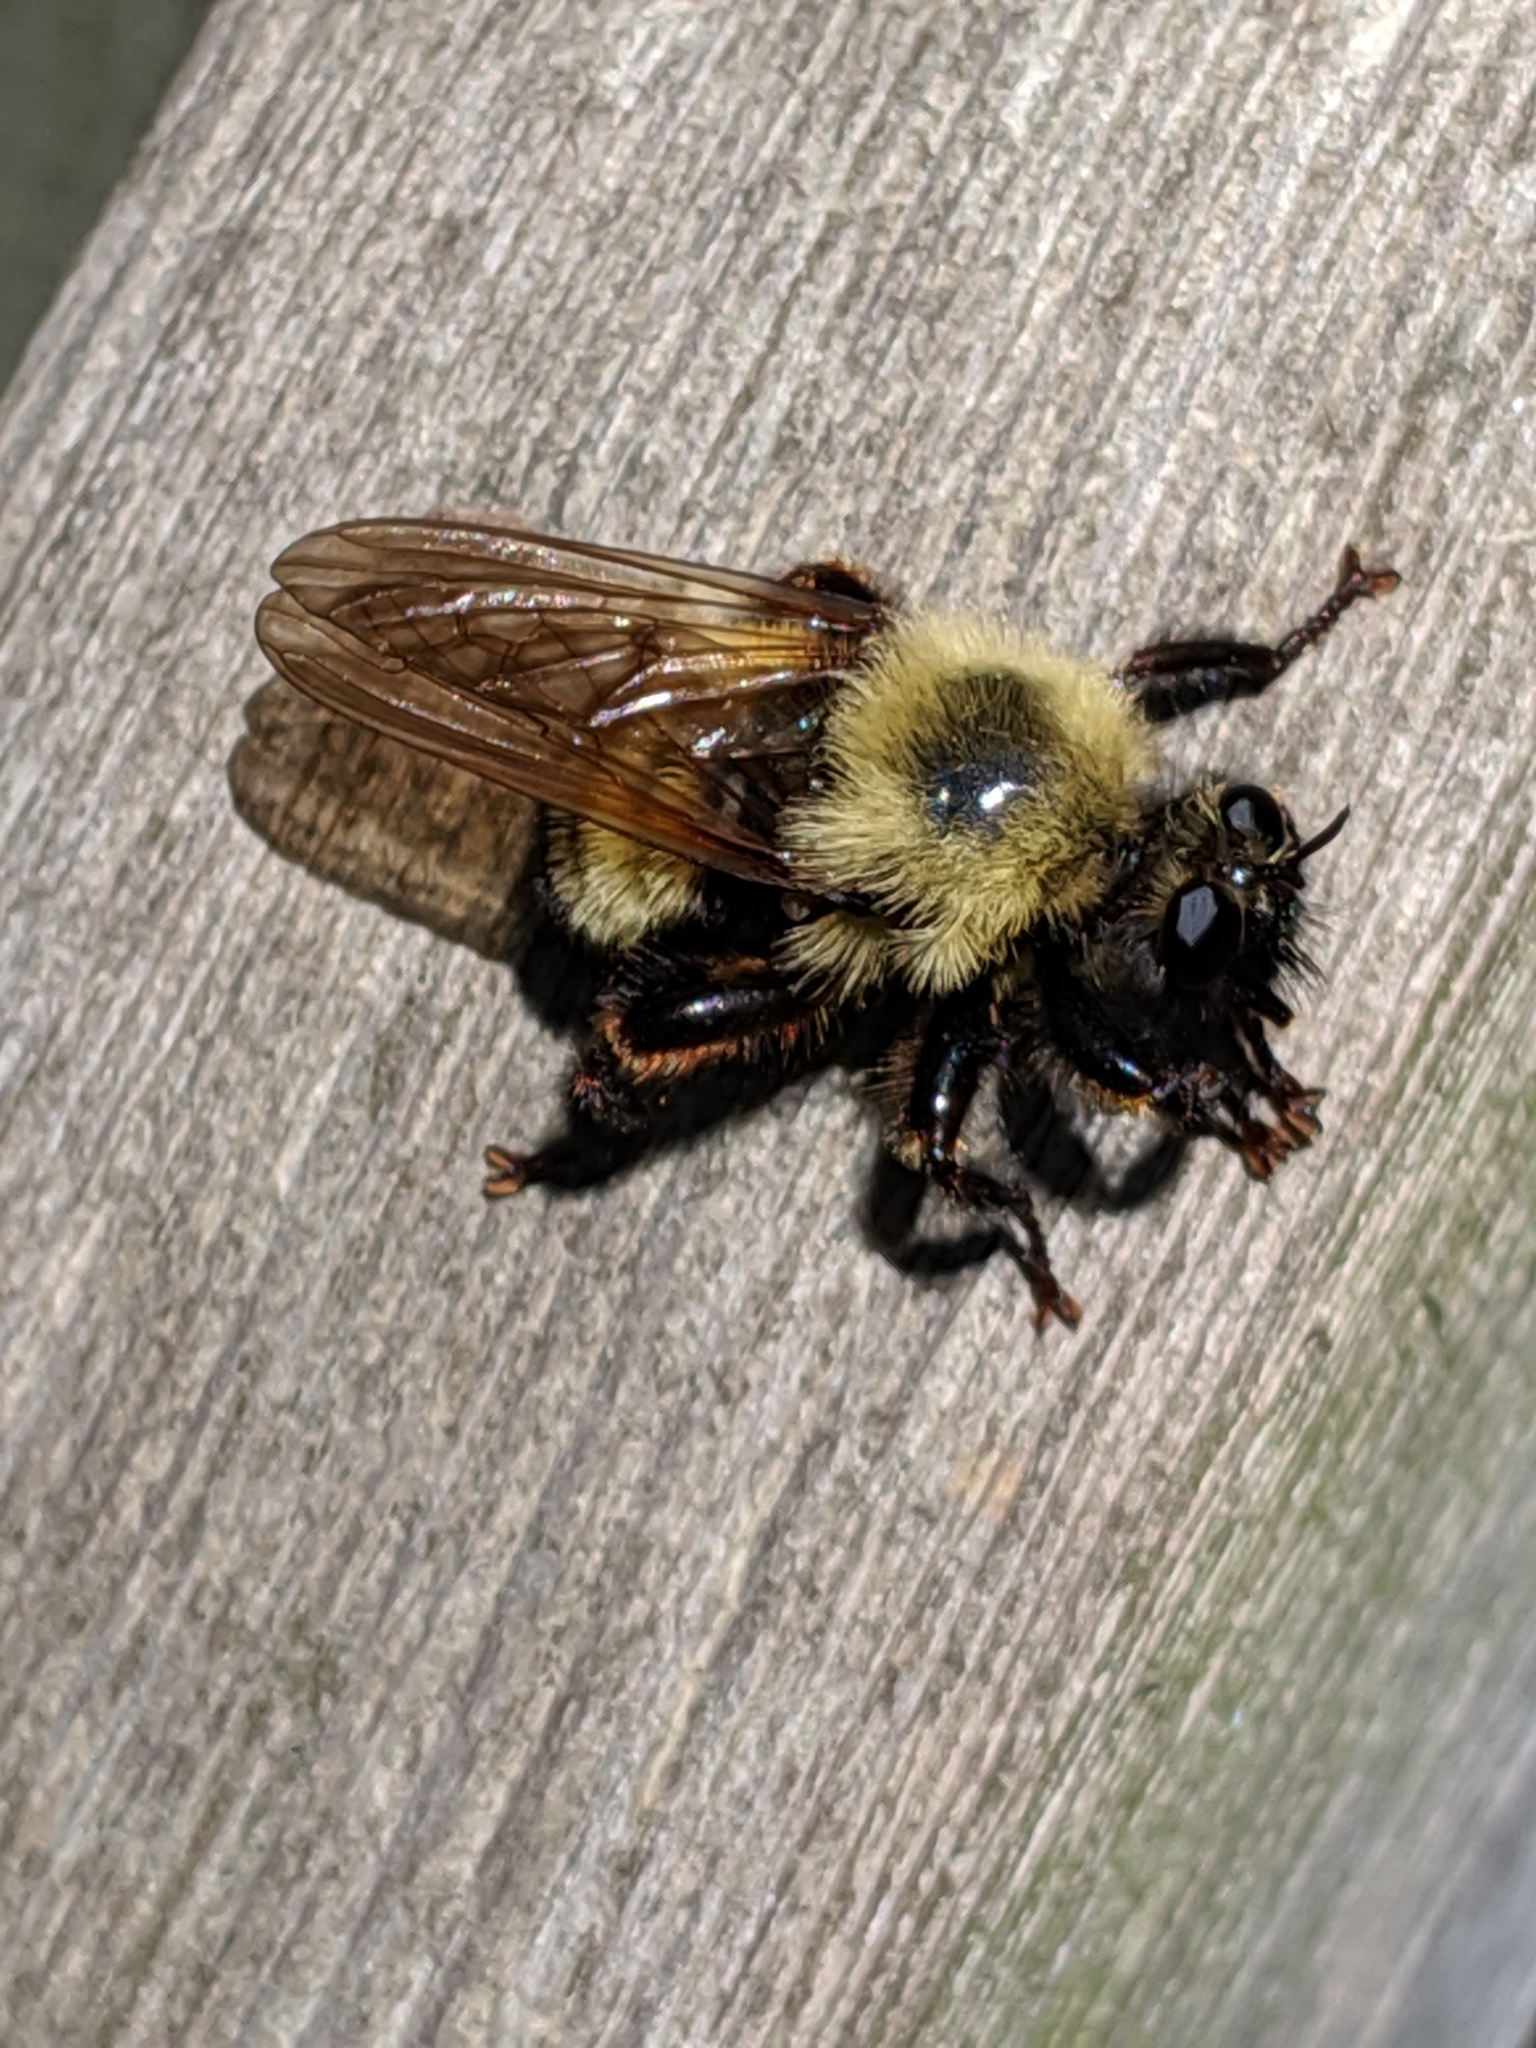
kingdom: Animalia
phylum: Arthropoda
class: Insecta
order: Diptera
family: Asilidae
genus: Laphria
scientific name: Laphria thoracica
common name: Bumble bee mimic robber fly
